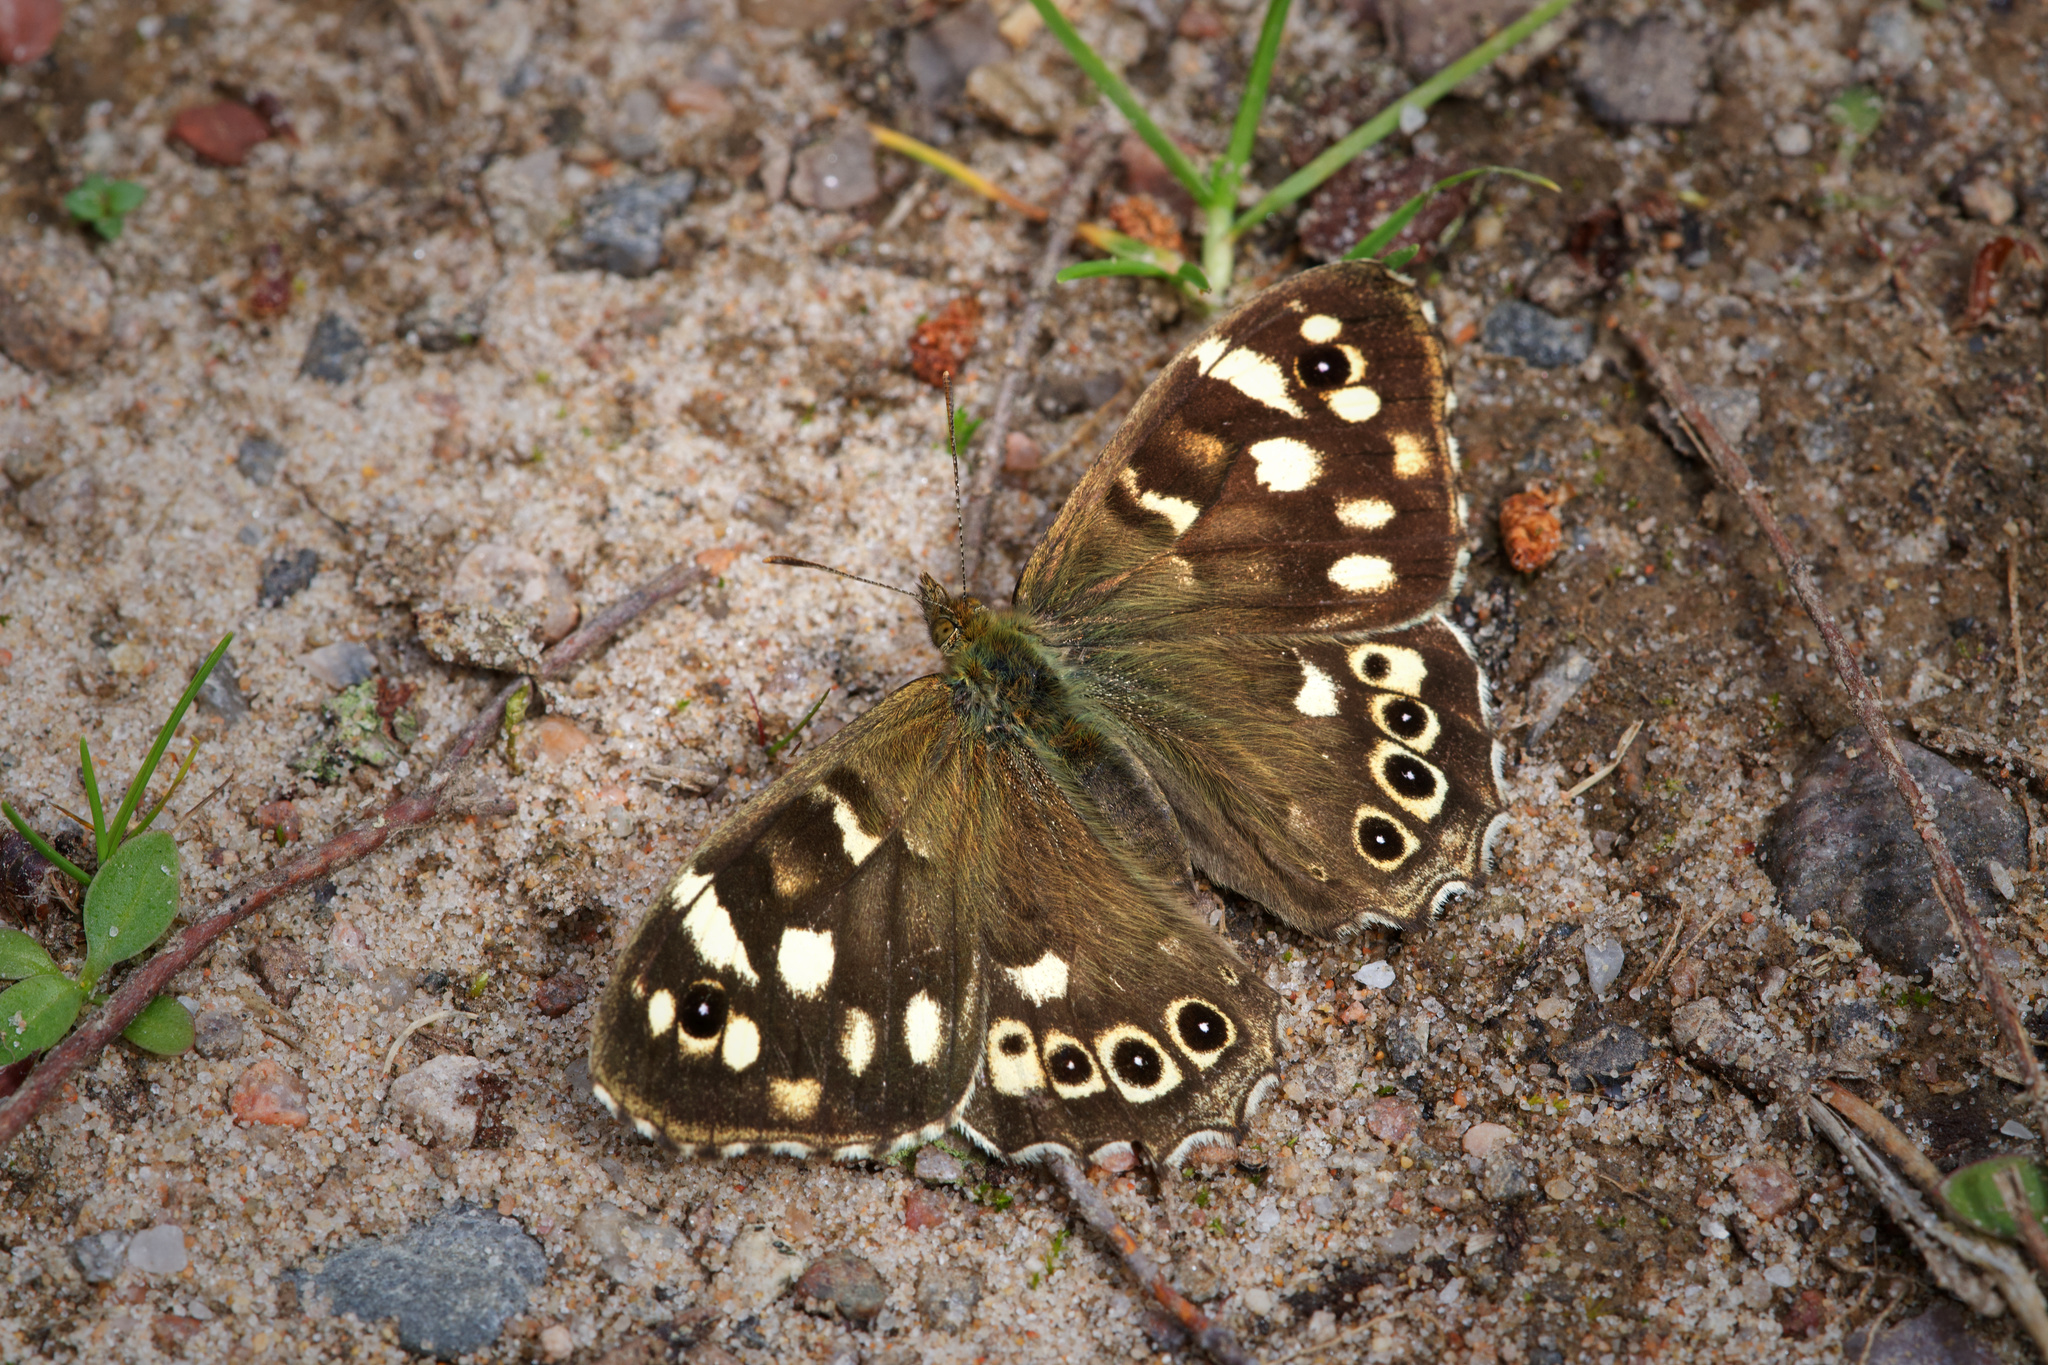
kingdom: Animalia
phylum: Arthropoda
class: Insecta
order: Lepidoptera
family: Nymphalidae
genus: Pararge
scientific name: Pararge aegeria
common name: Speckled wood
